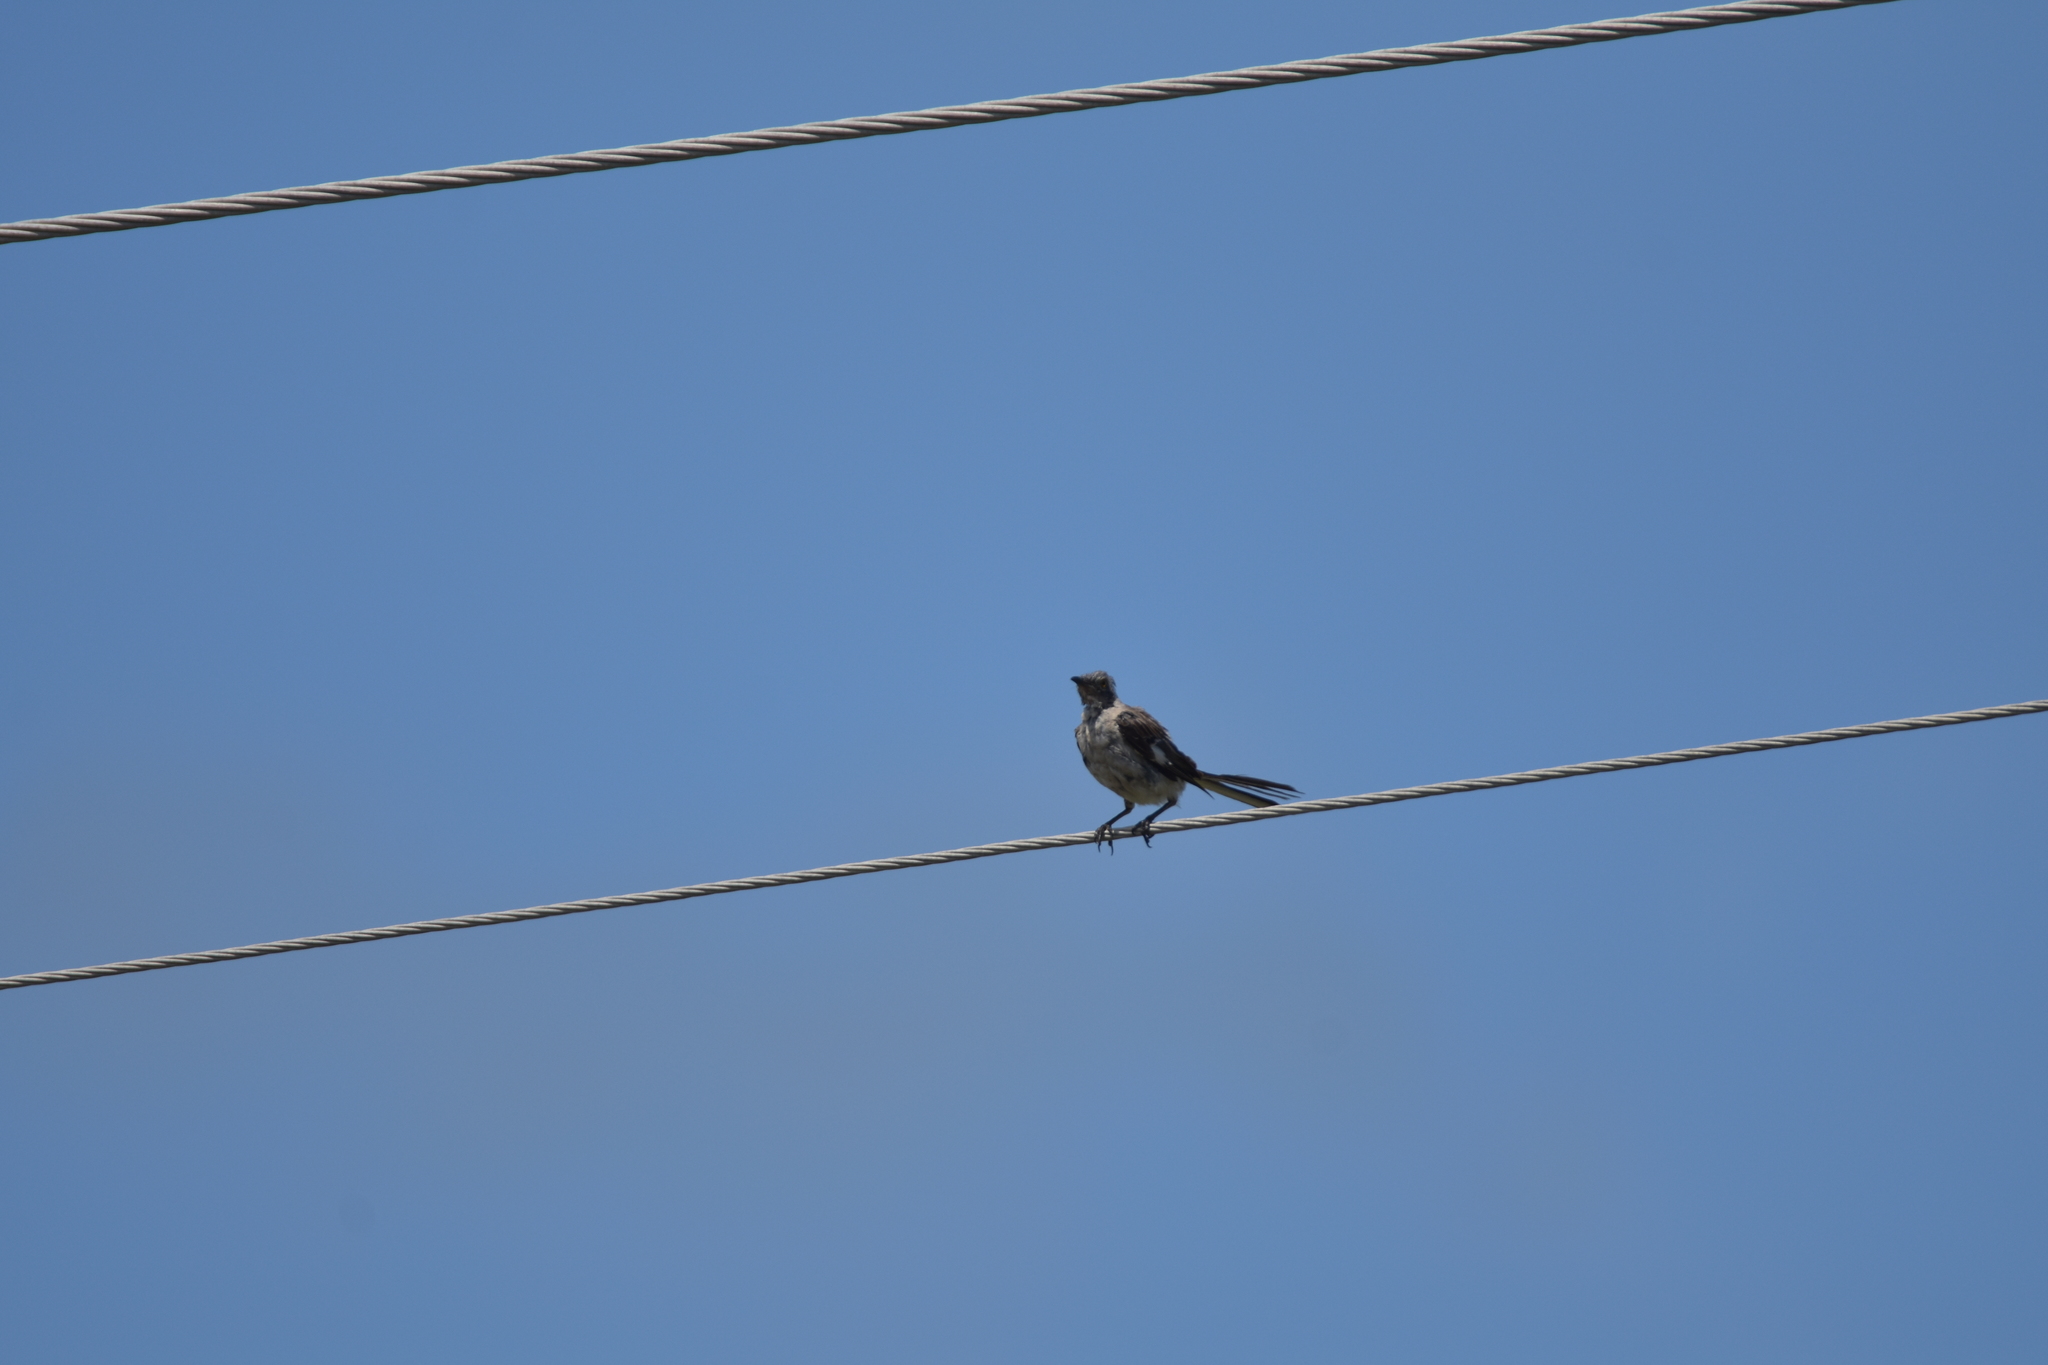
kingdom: Animalia
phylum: Chordata
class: Aves
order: Passeriformes
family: Mimidae
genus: Mimus
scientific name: Mimus polyglottos
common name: Northern mockingbird
